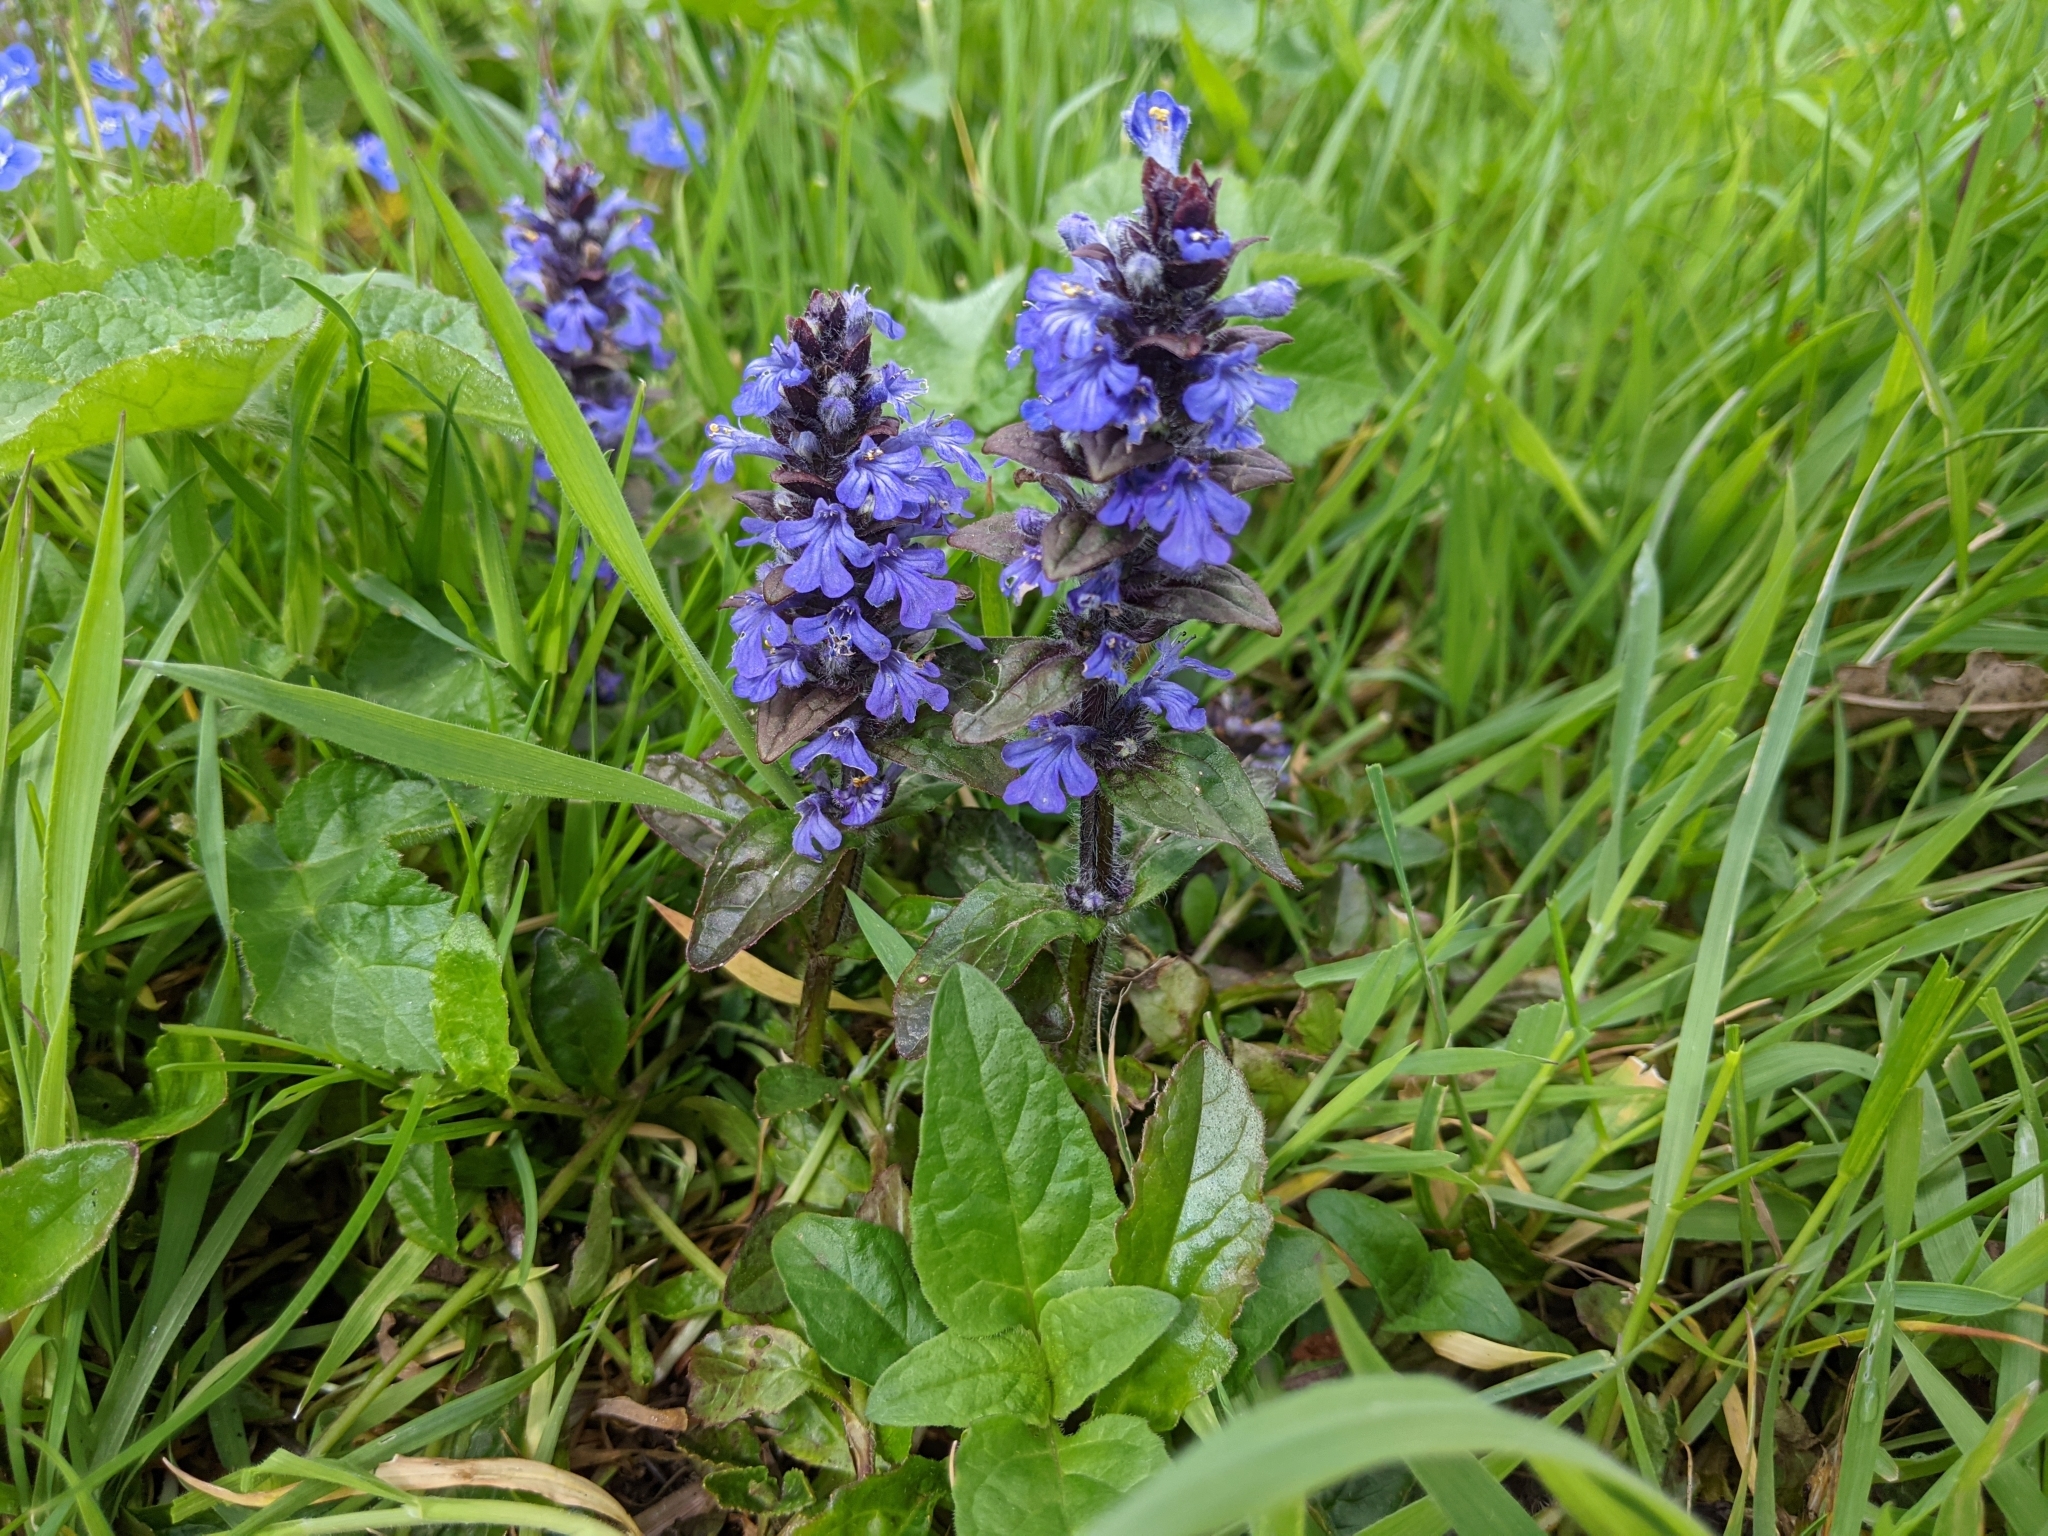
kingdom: Plantae
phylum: Tracheophyta
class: Magnoliopsida
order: Lamiales
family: Lamiaceae
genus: Ajuga
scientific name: Ajuga reptans
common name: Bugle
